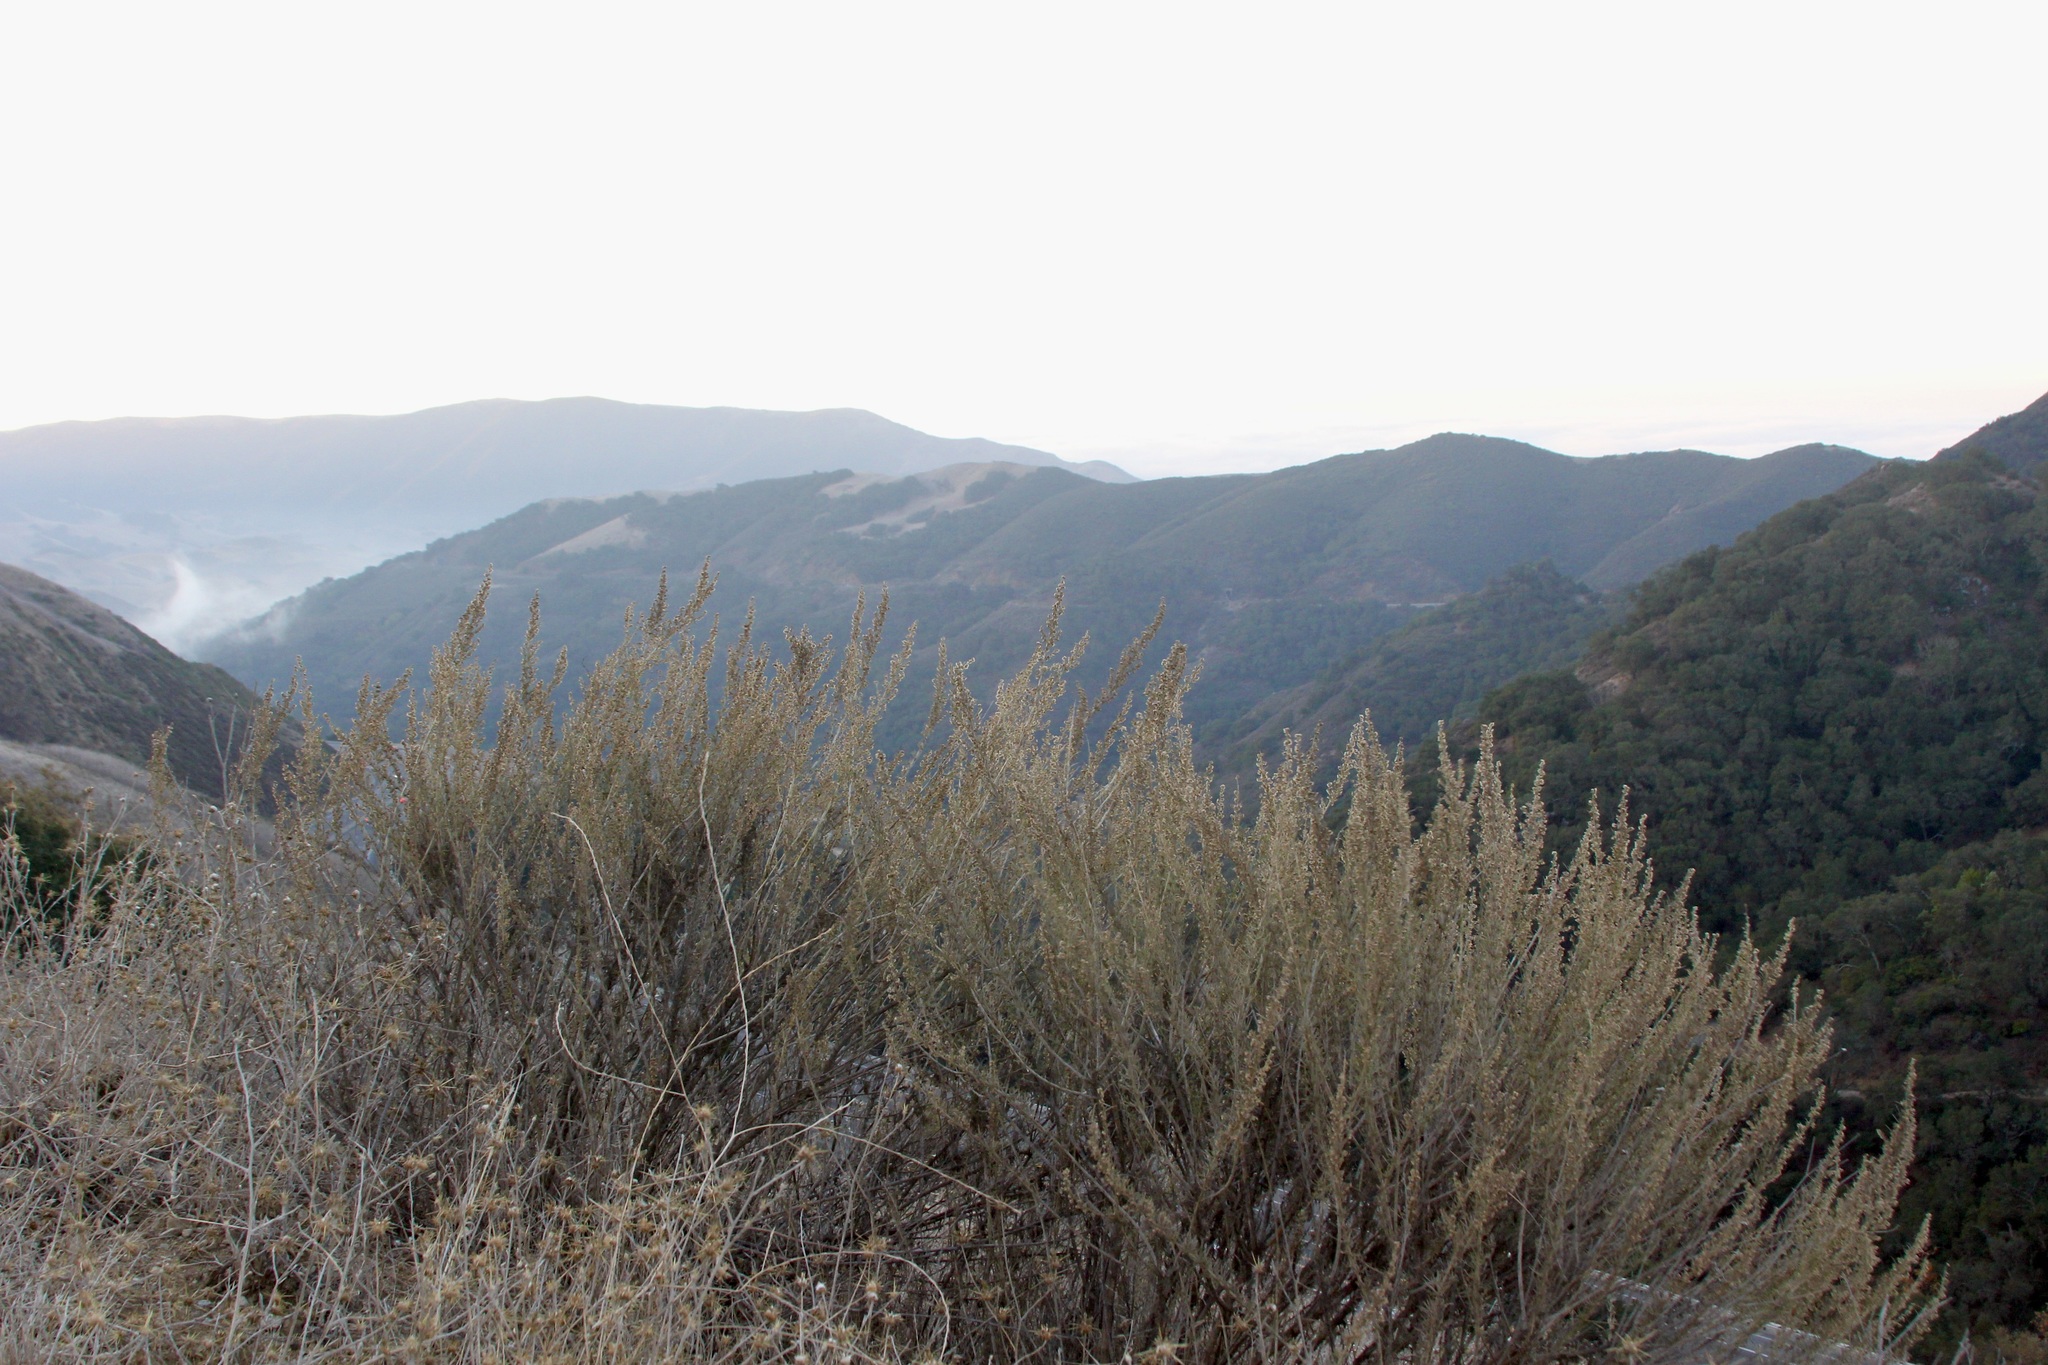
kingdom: Plantae
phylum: Tracheophyta
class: Magnoliopsida
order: Asterales
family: Asteraceae
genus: Artemisia
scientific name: Artemisia californica
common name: California sagebrush
